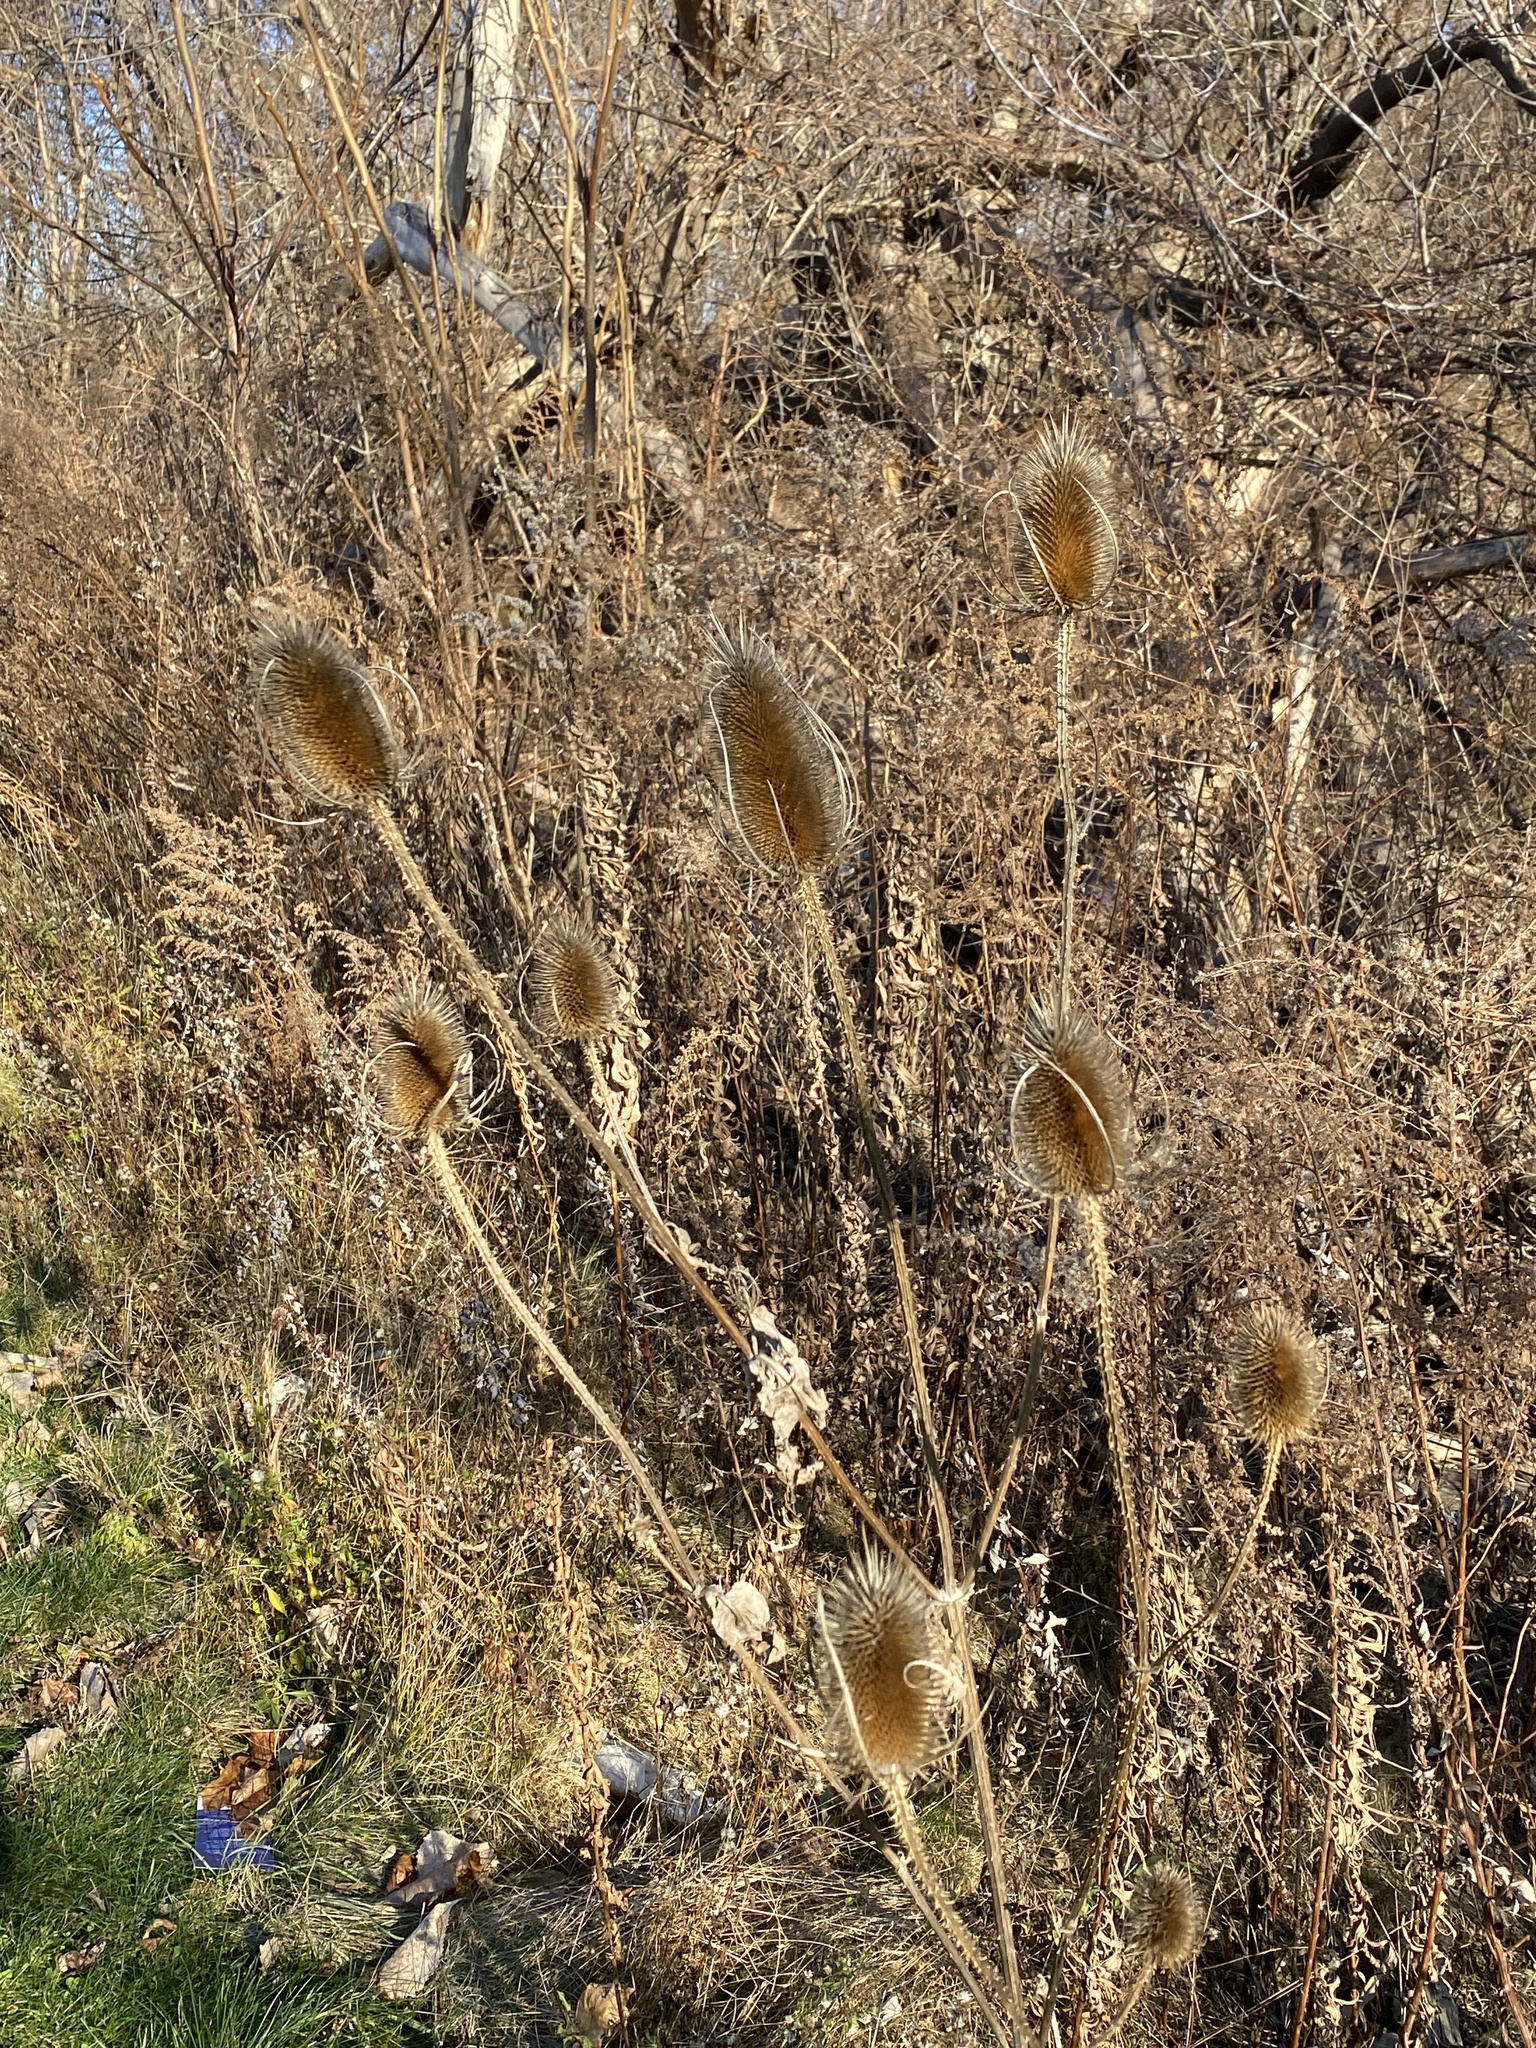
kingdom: Plantae
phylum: Tracheophyta
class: Magnoliopsida
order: Dipsacales
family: Caprifoliaceae
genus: Dipsacus
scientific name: Dipsacus fullonum
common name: Teasel
